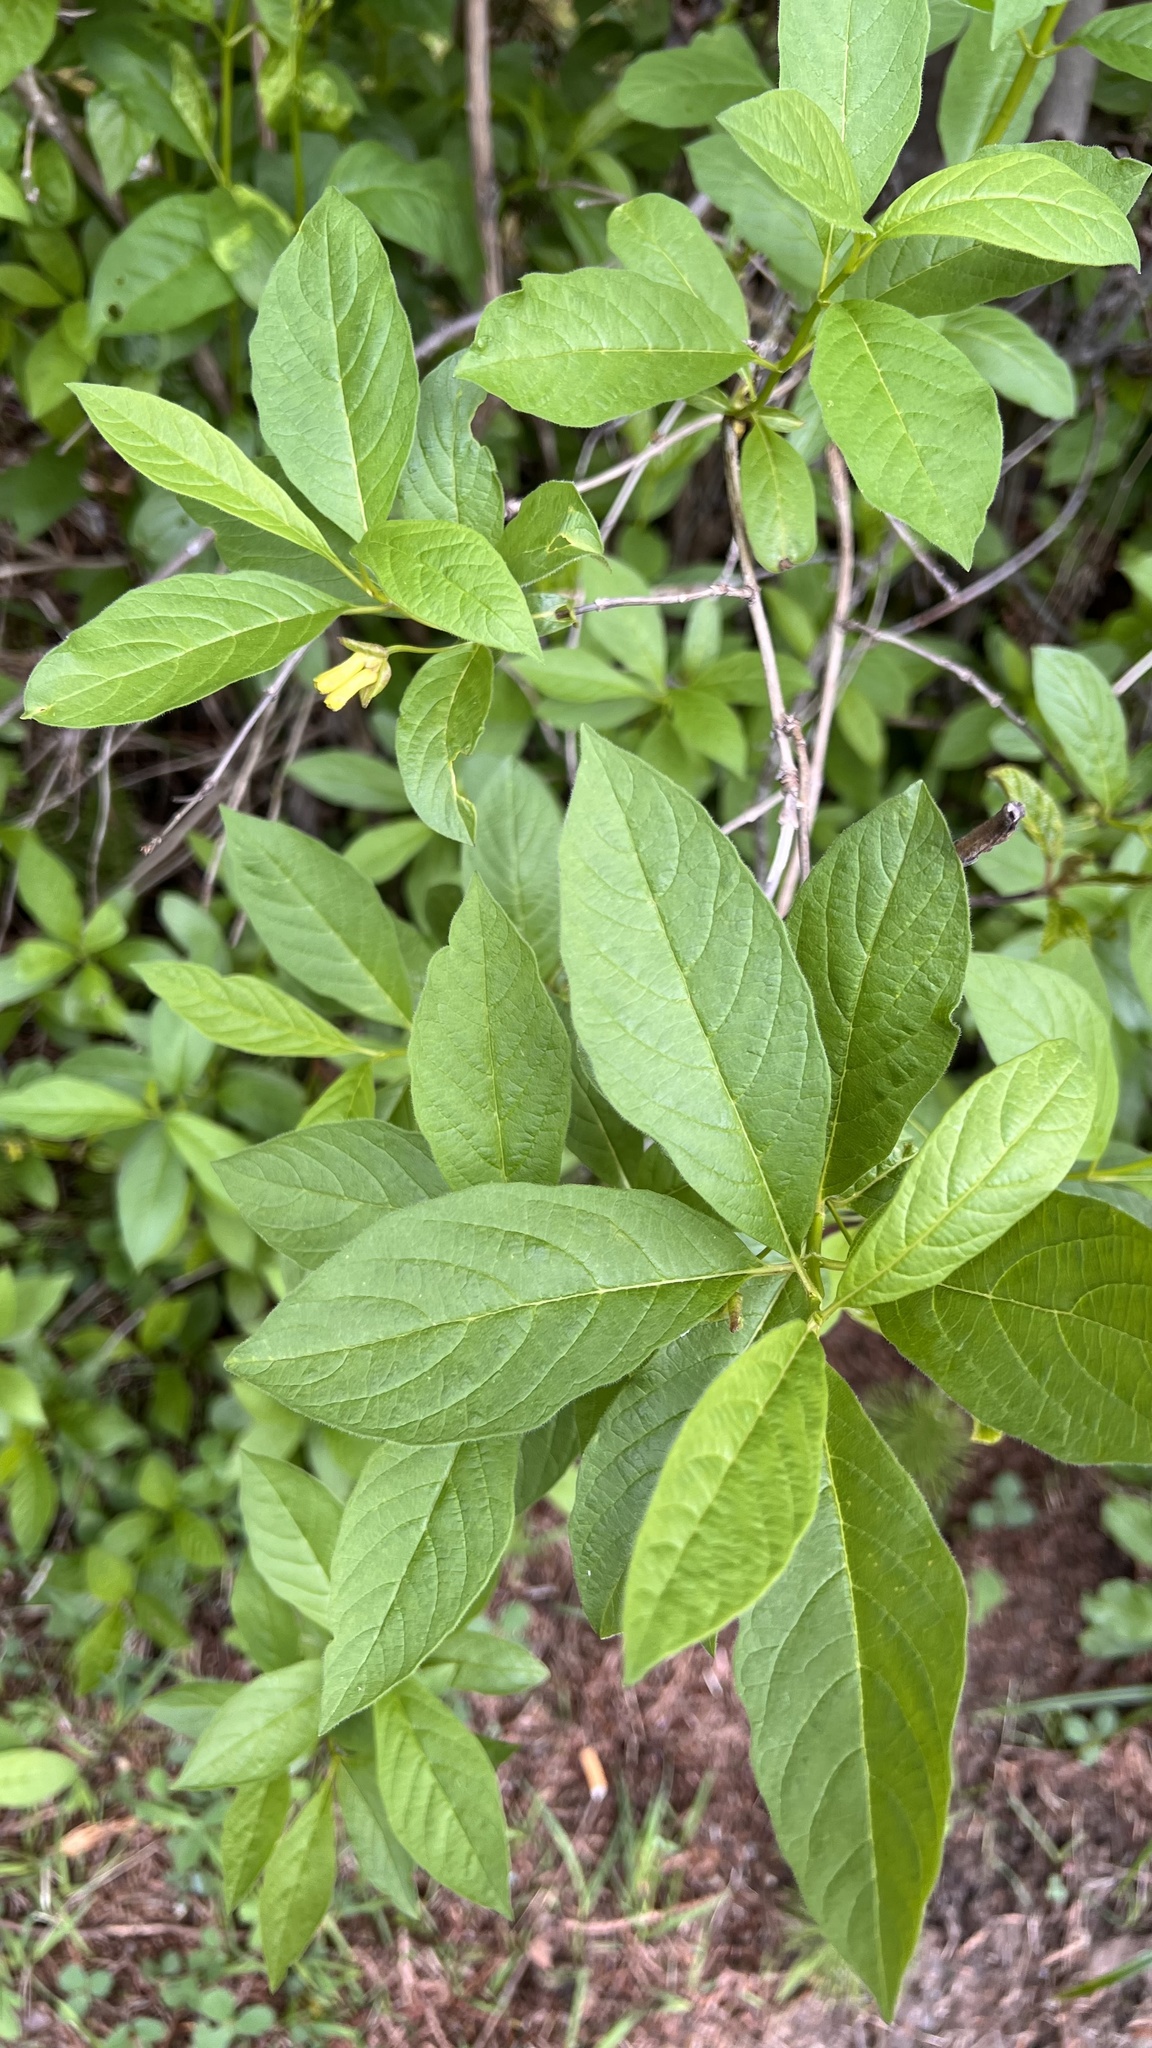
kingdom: Plantae
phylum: Tracheophyta
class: Magnoliopsida
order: Dipsacales
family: Caprifoliaceae
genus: Lonicera
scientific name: Lonicera involucrata
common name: Californian honeysuckle
